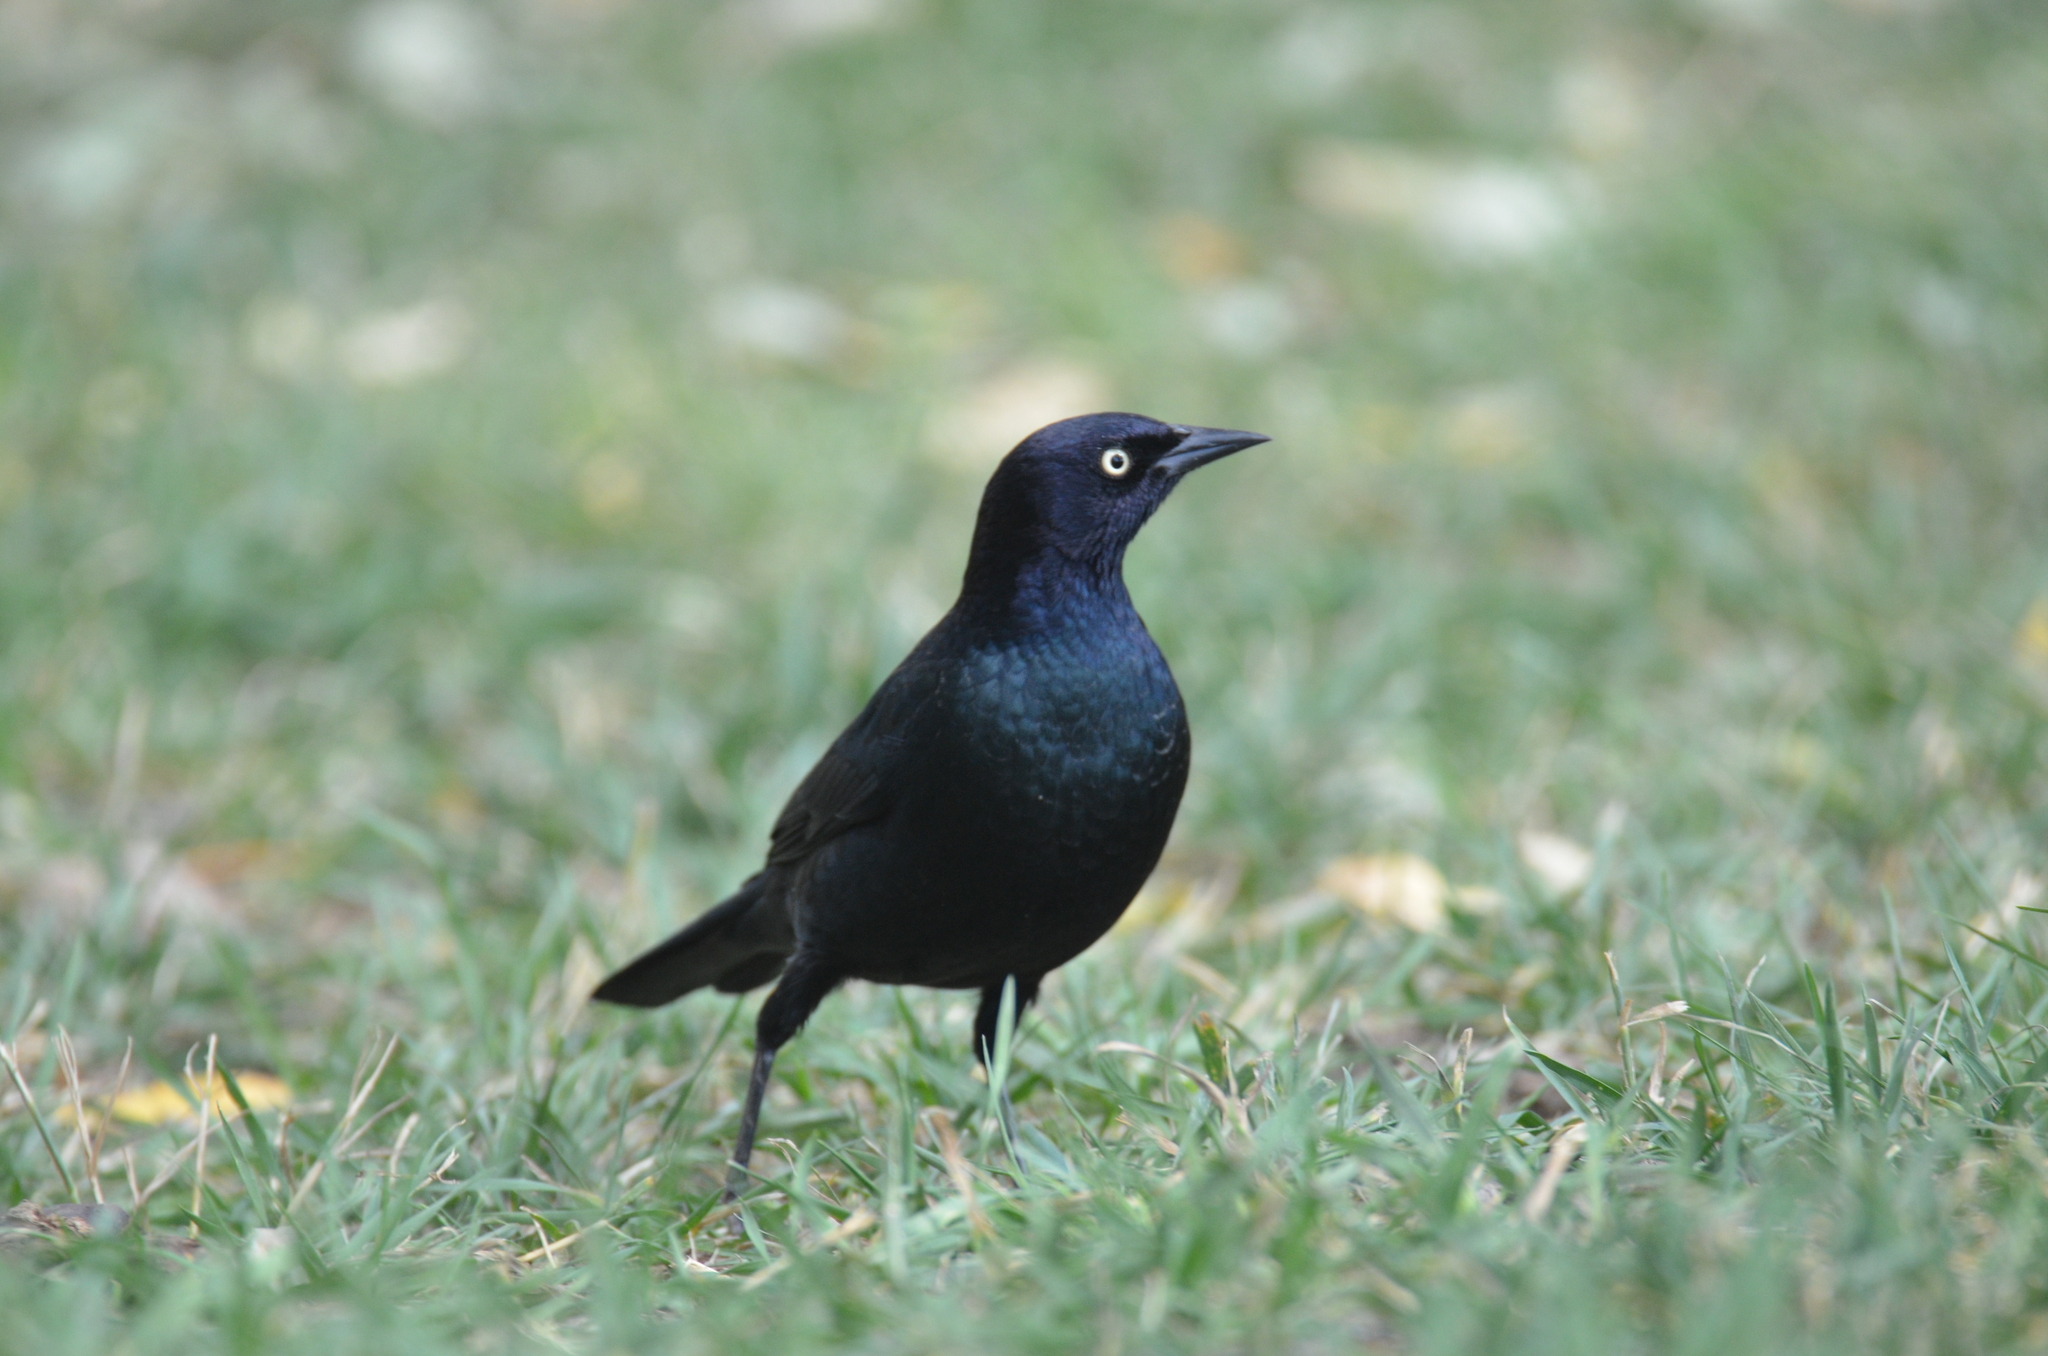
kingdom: Animalia
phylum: Chordata
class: Aves
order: Passeriformes
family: Icteridae
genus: Euphagus
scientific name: Euphagus cyanocephalus
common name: Brewer's blackbird
